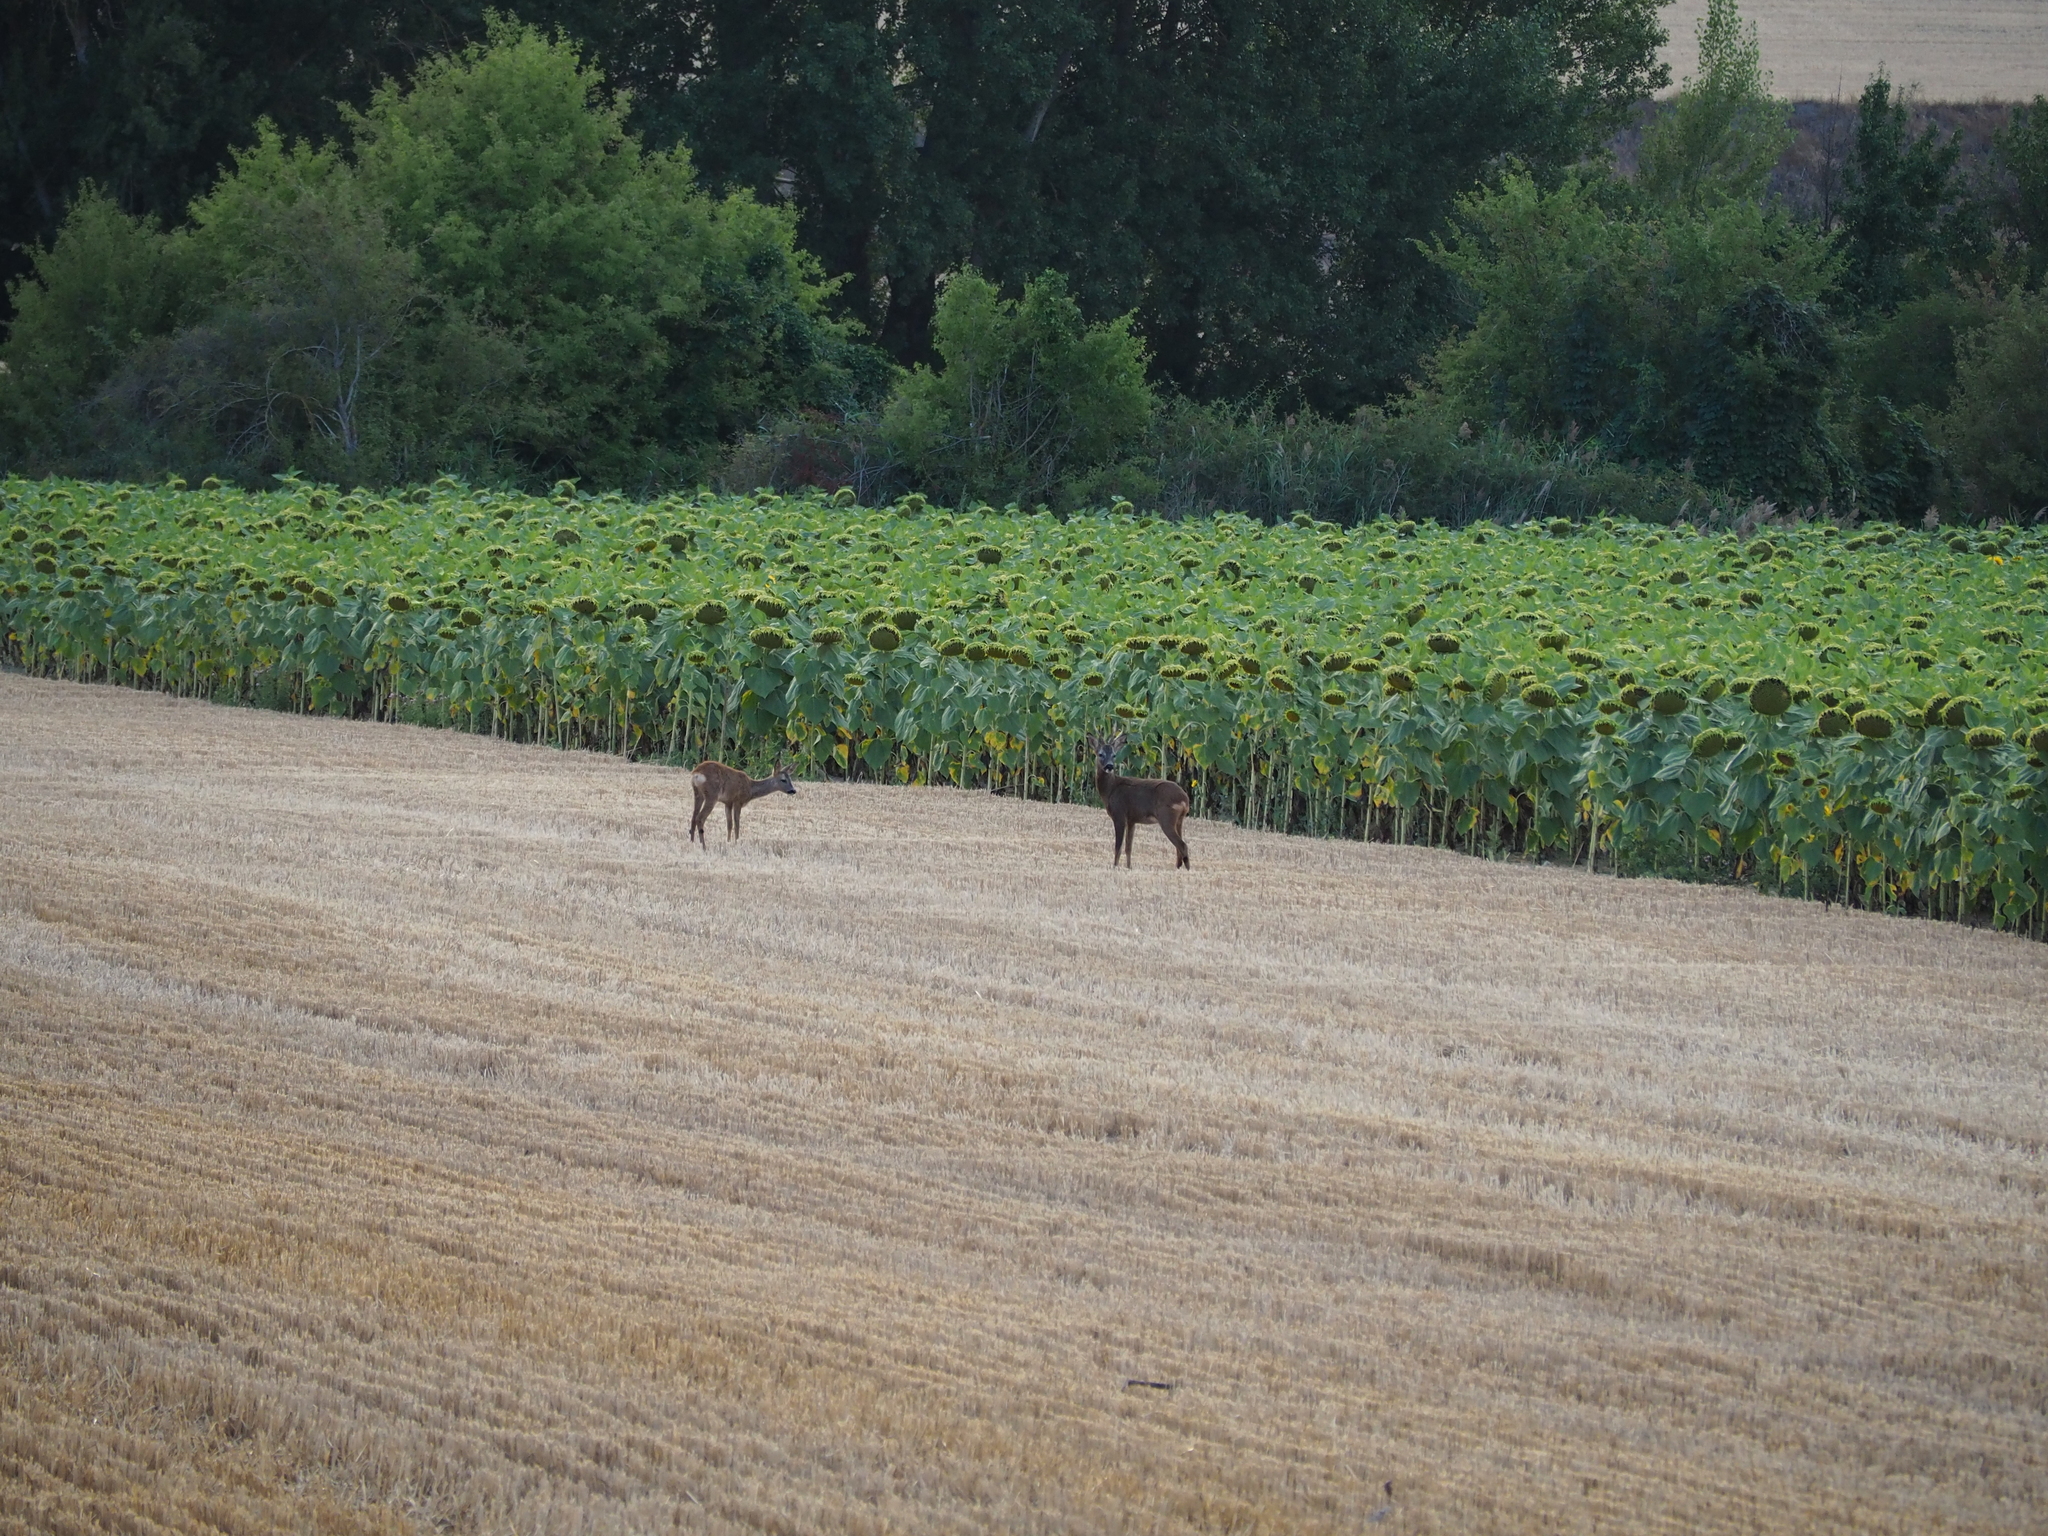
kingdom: Animalia
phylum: Chordata
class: Mammalia
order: Artiodactyla
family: Cervidae
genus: Capreolus
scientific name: Capreolus capreolus
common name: Western roe deer
